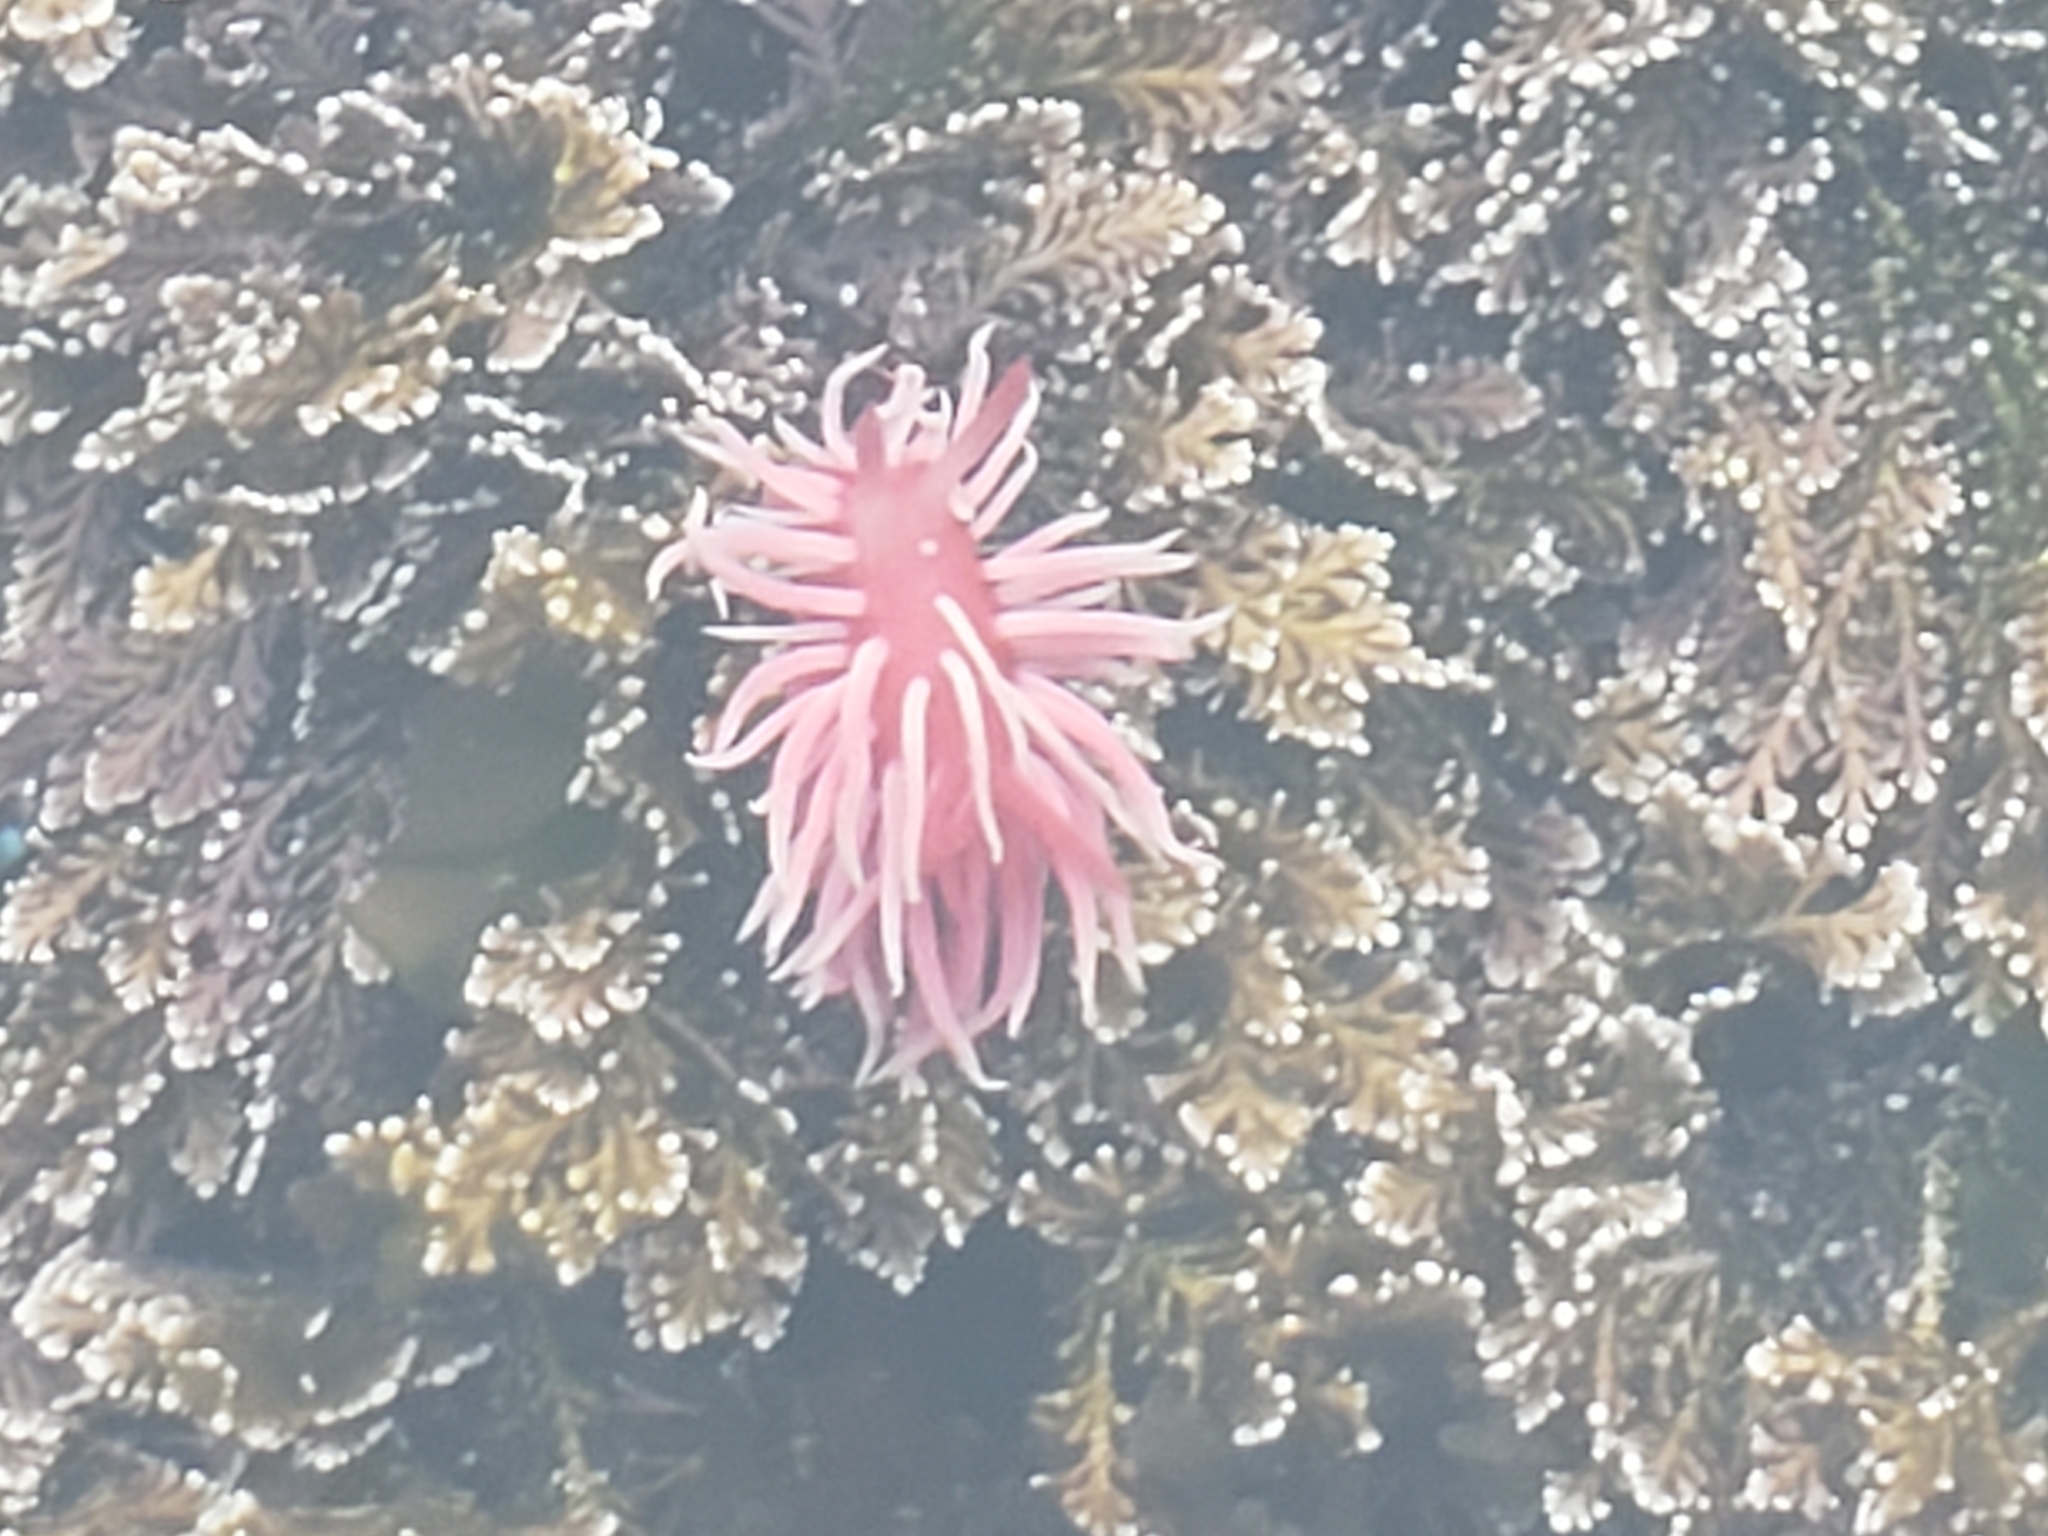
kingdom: Animalia
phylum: Mollusca
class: Gastropoda
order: Nudibranchia
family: Goniodorididae
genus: Okenia
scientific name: Okenia
